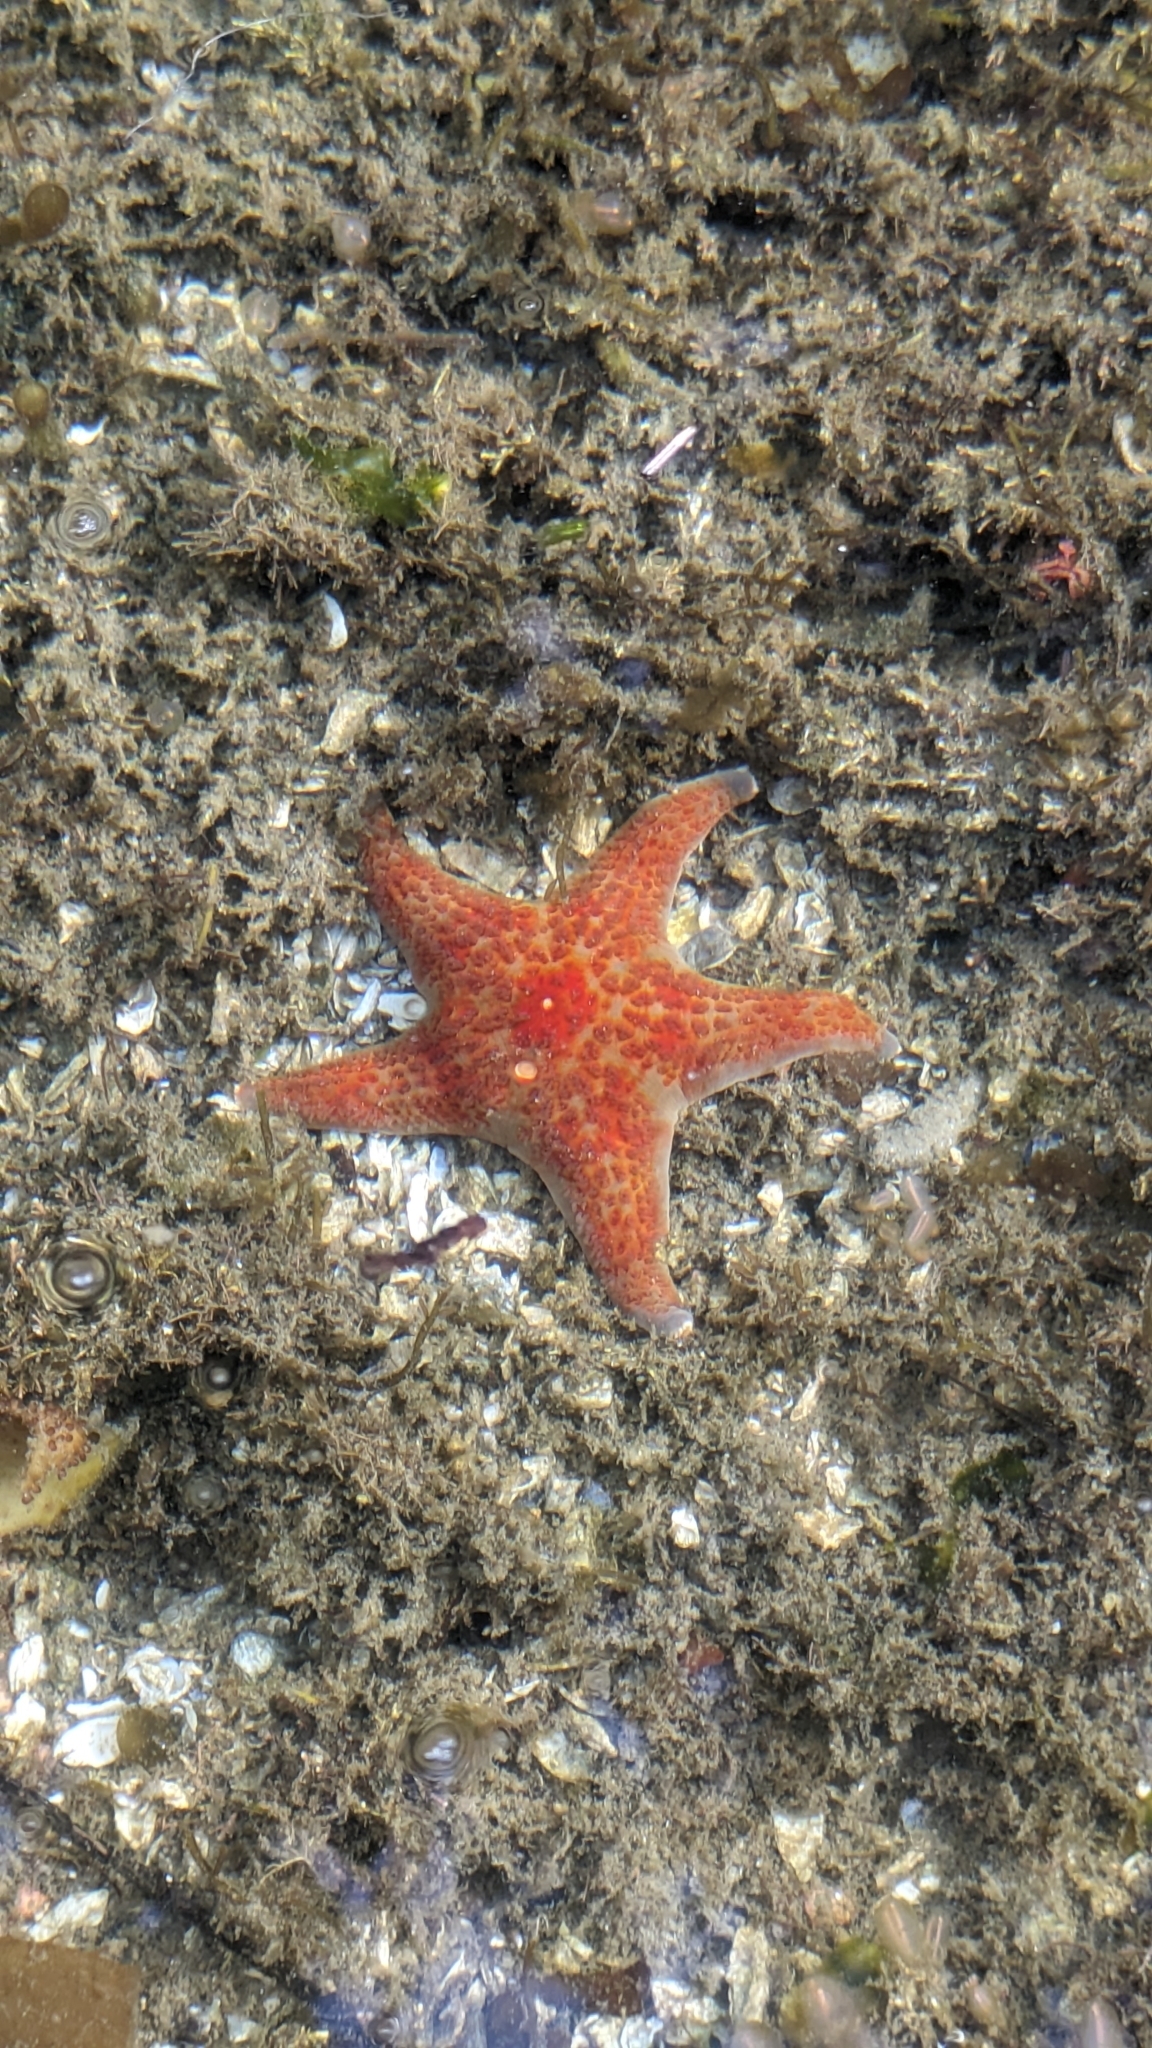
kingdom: Animalia
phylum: Echinodermata
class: Asteroidea
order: Valvatida
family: Asteropseidae
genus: Dermasterias
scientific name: Dermasterias imbricata
